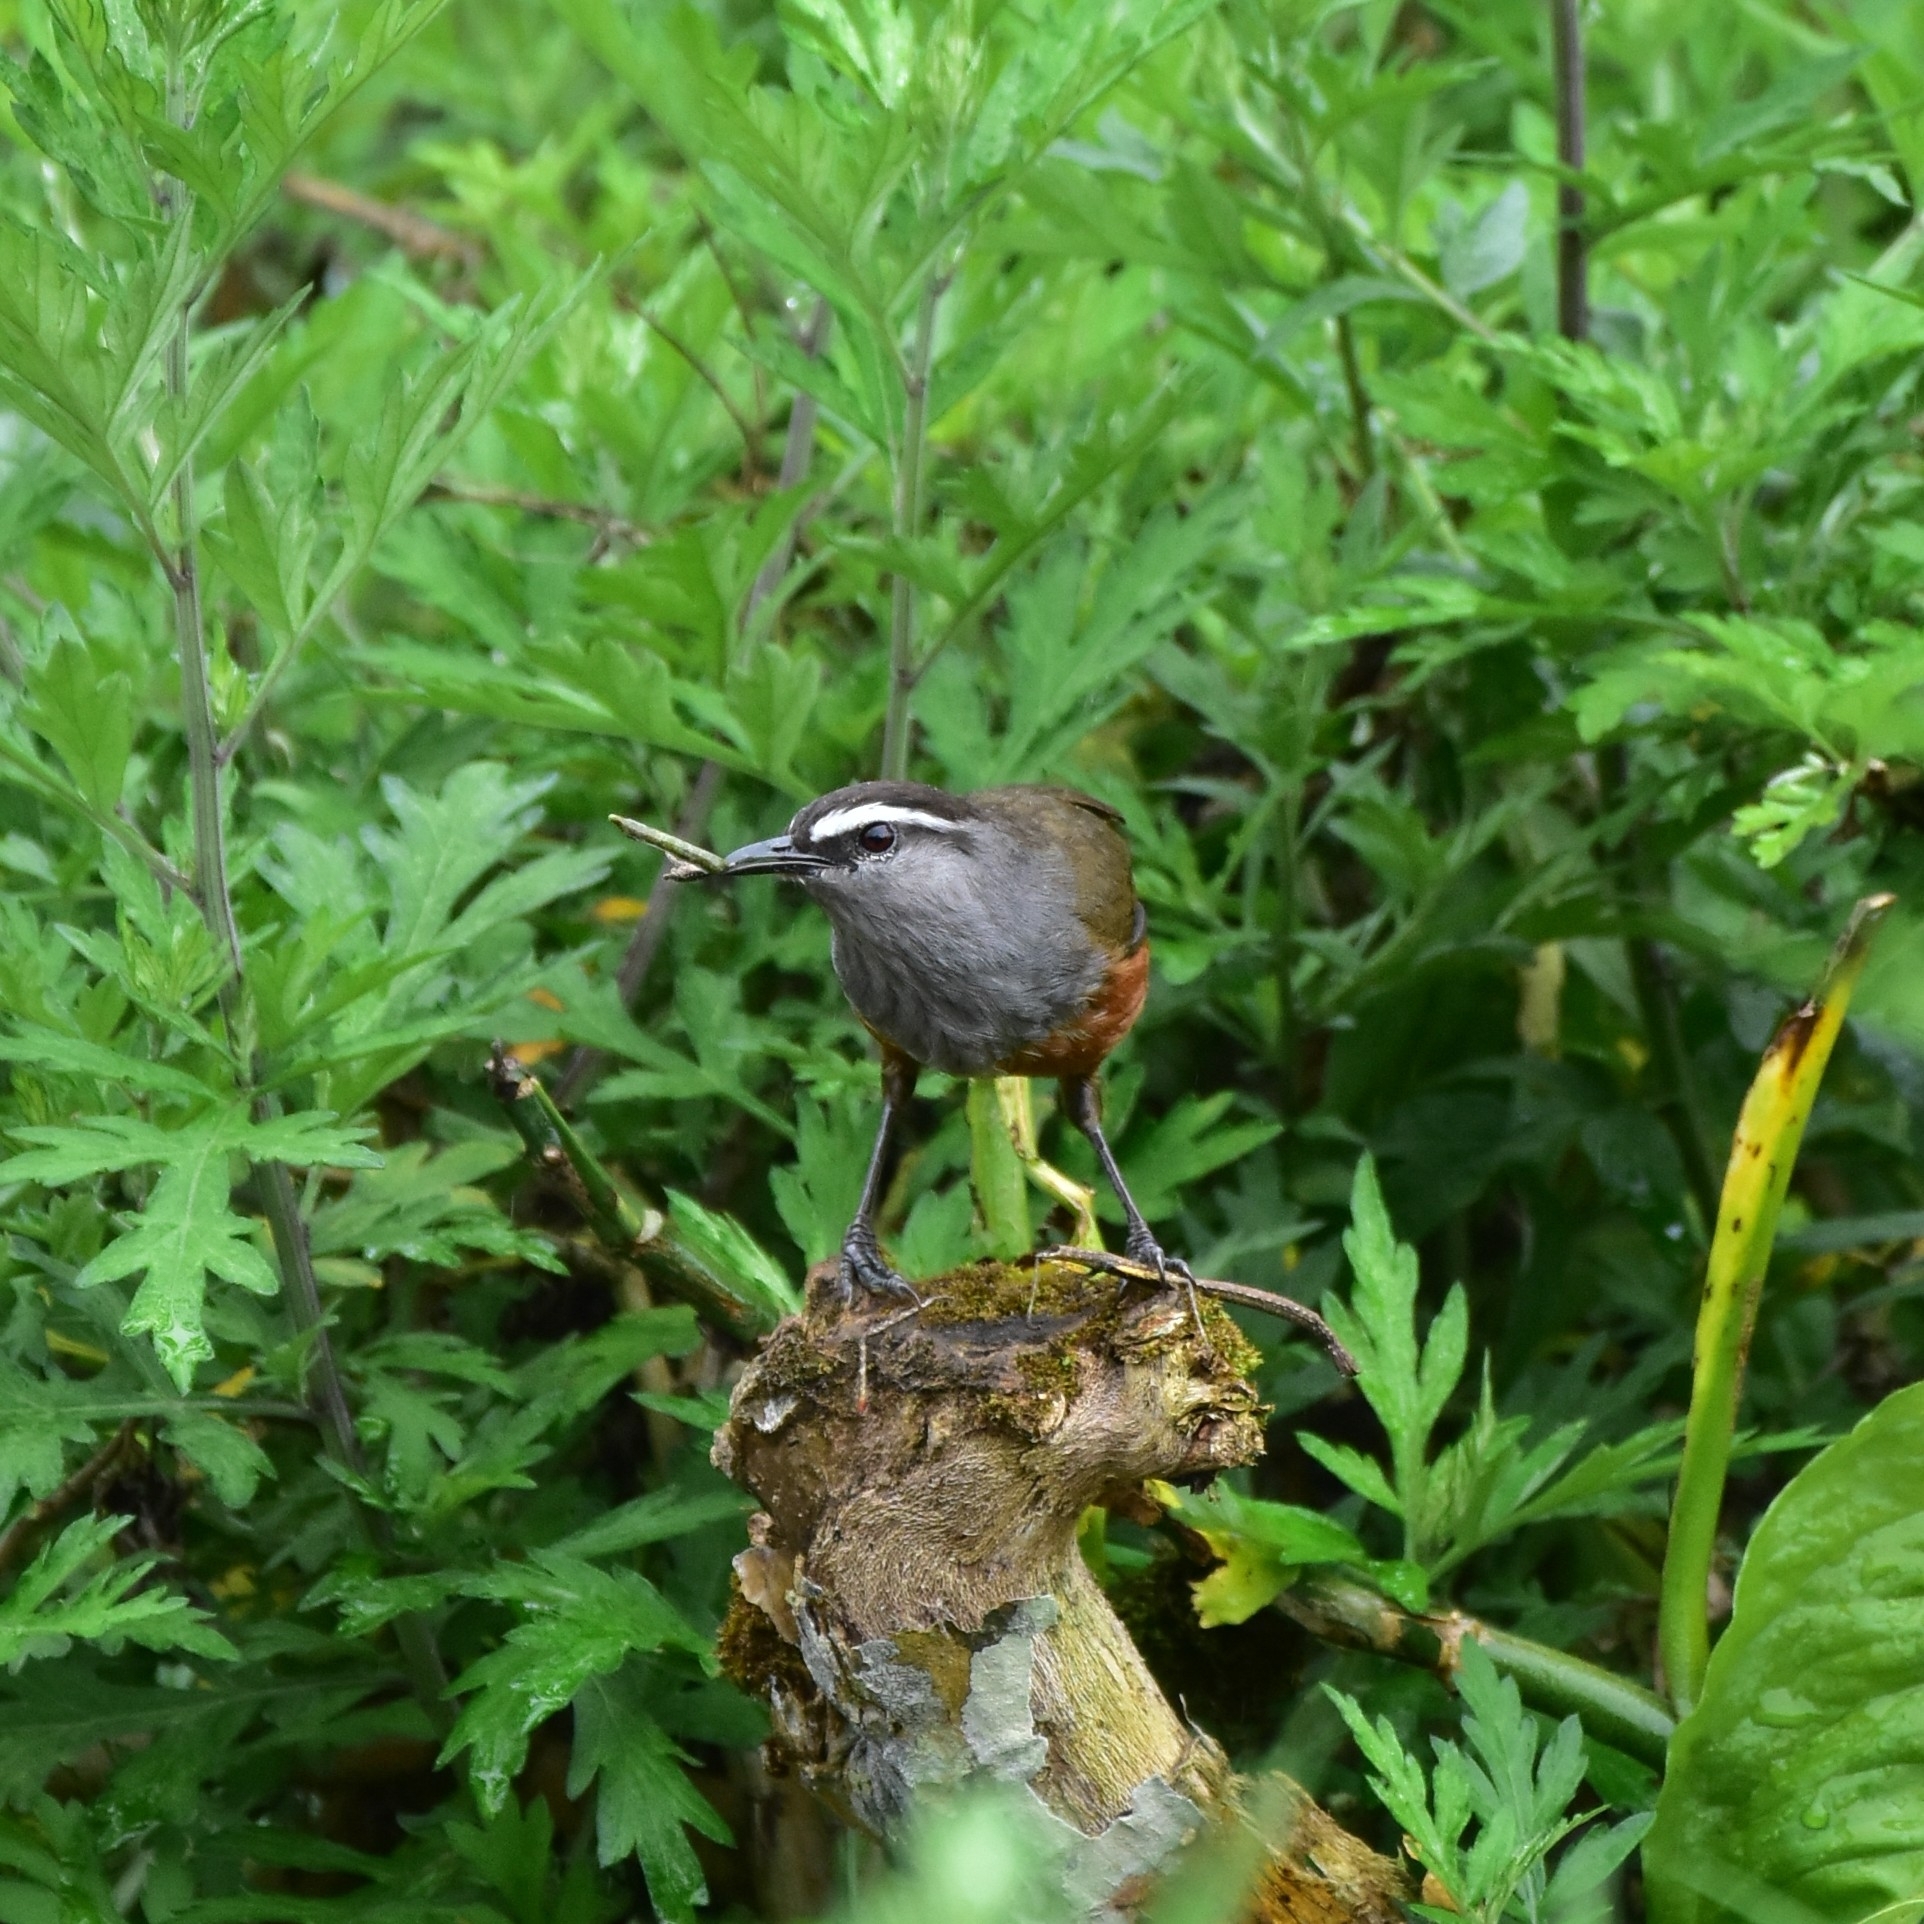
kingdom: Animalia
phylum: Chordata
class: Aves
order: Passeriformes
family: Leiothrichidae
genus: Trochalopteron
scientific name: Trochalopteron fairbanki
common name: Kerala laughingthrush
